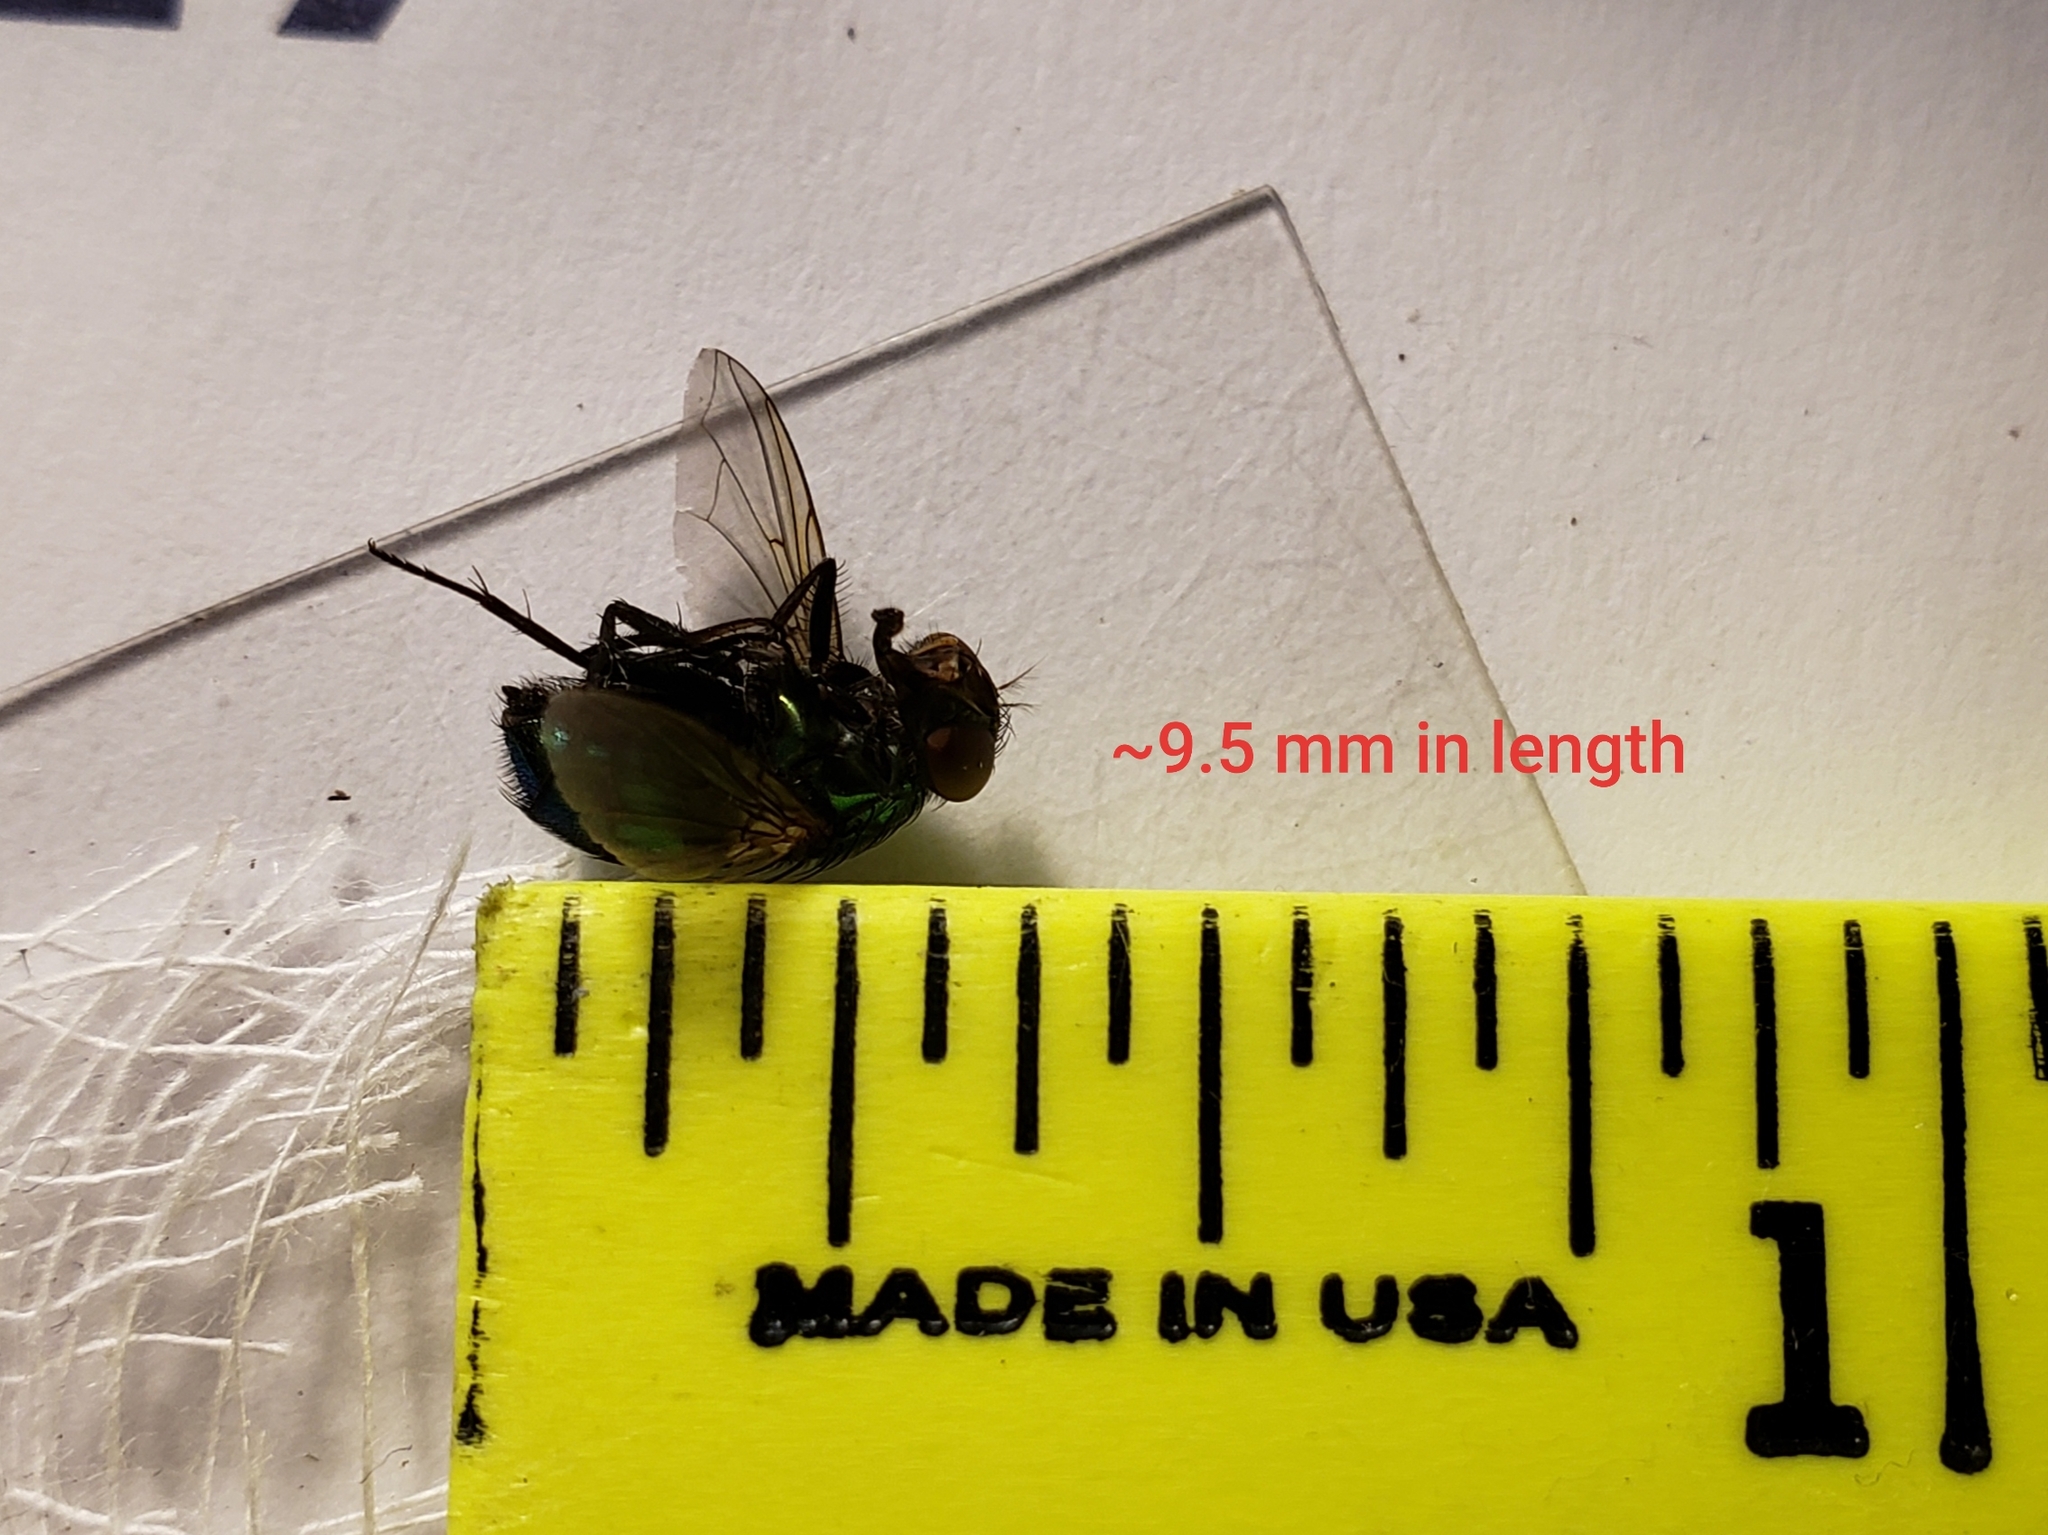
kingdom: Animalia
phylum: Arthropoda
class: Insecta
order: Diptera
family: Calliphoridae
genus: Lucilia
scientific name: Lucilia caeruleiviridis
